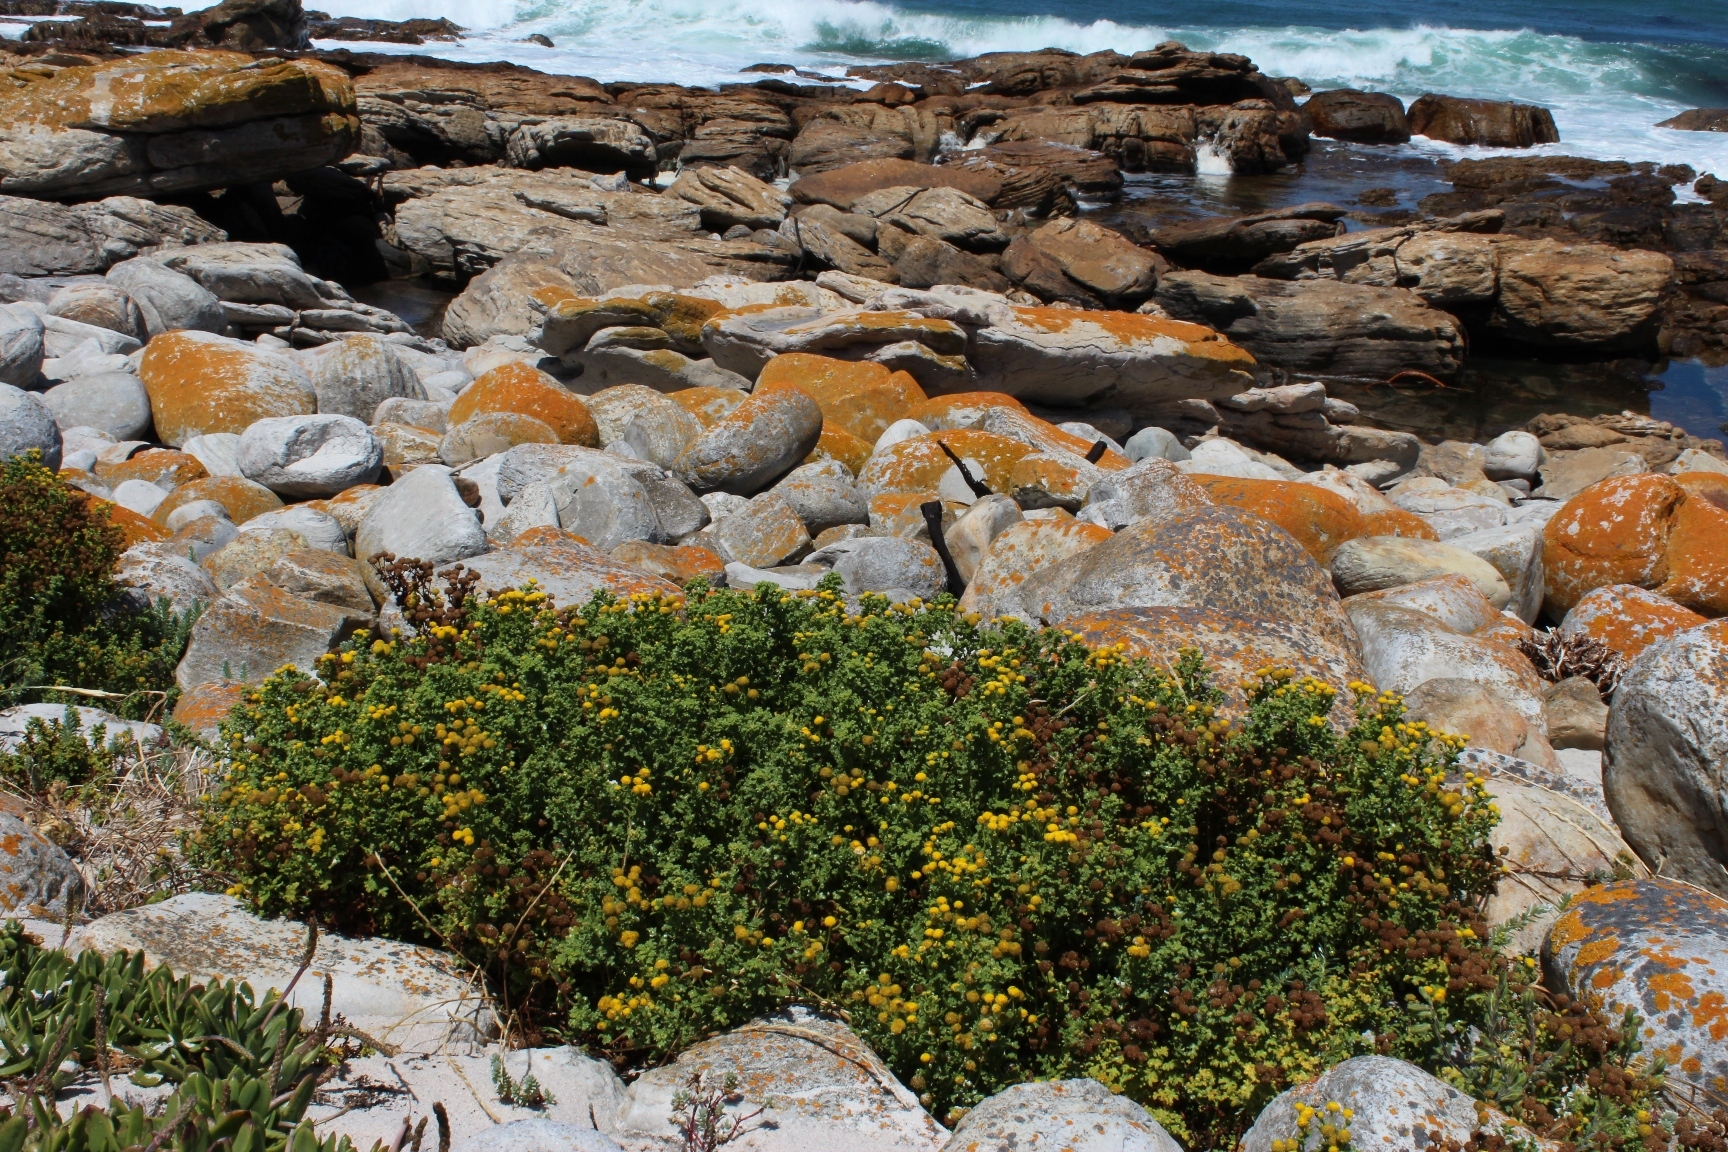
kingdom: Plantae
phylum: Tracheophyta
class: Magnoliopsida
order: Asterales
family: Asteraceae
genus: Oncosiphon
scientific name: Oncosiphon sabulosus
